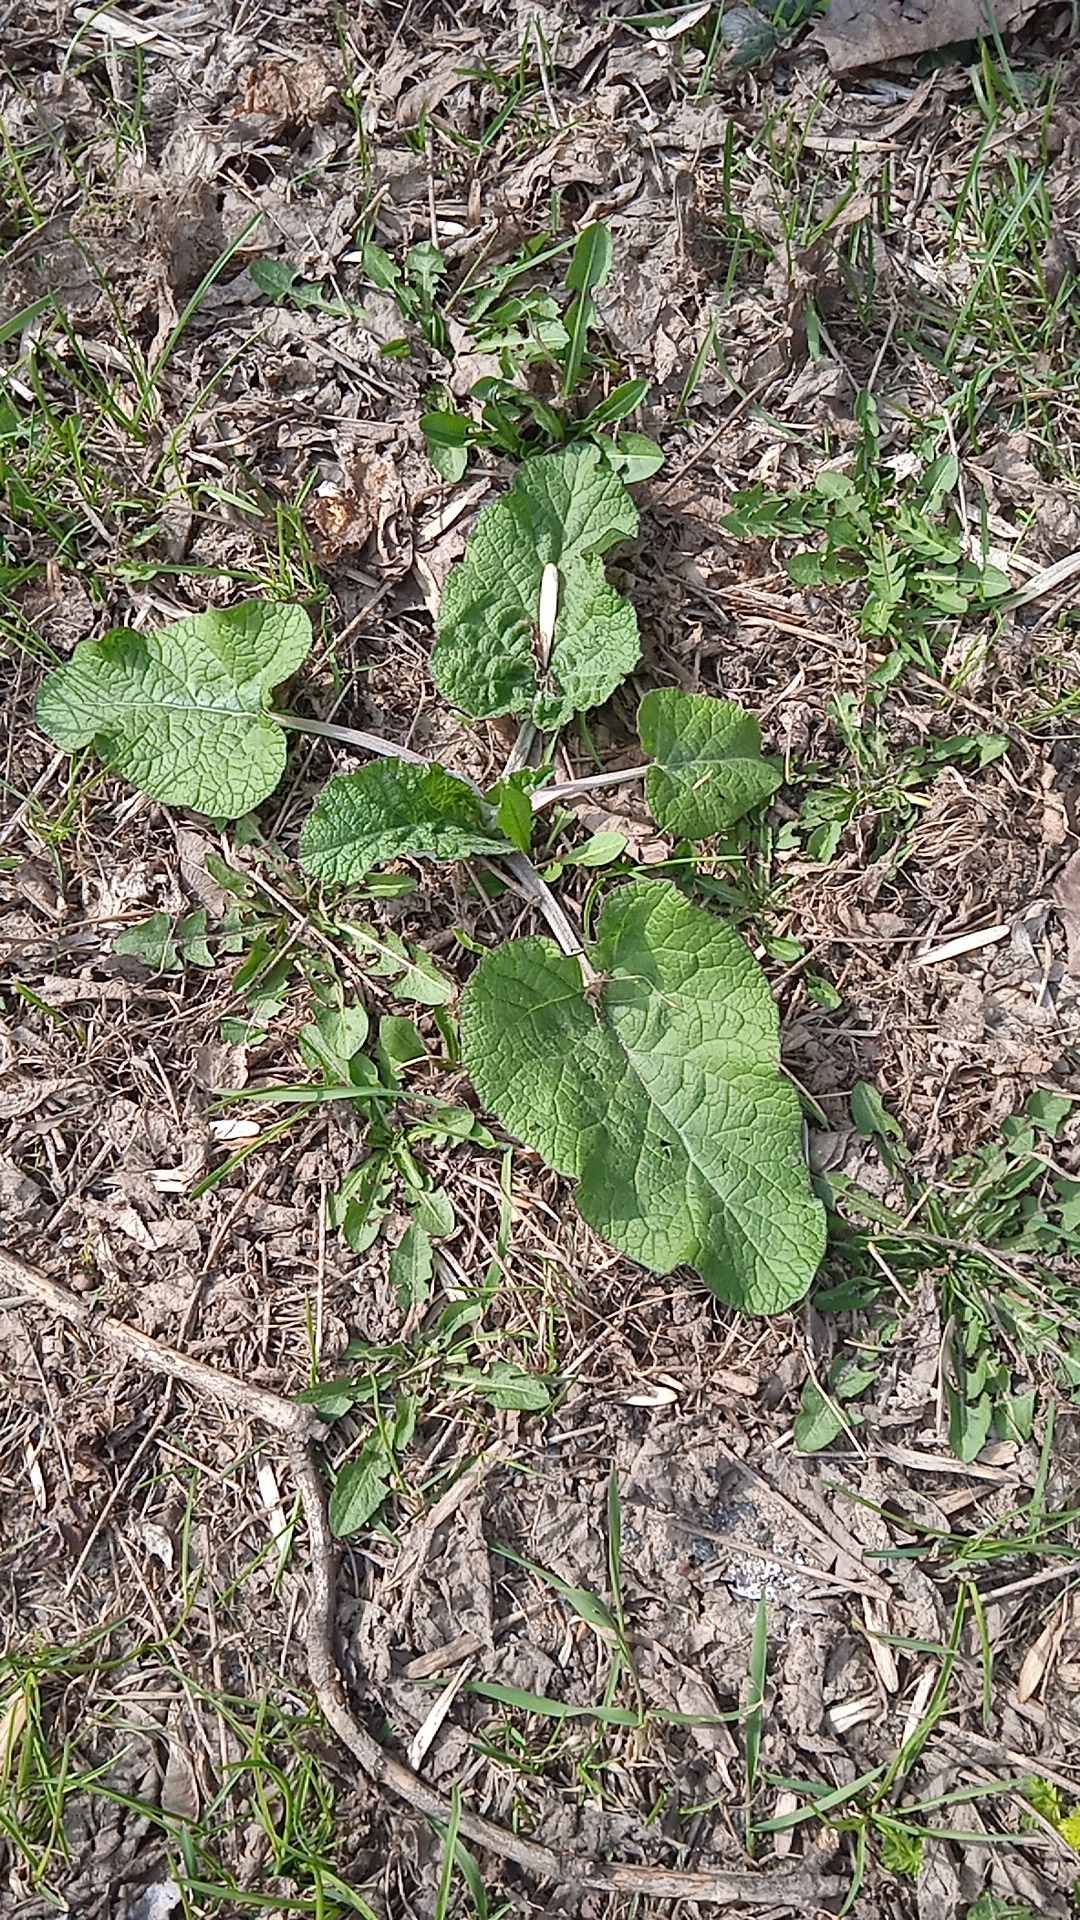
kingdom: Plantae
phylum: Tracheophyta
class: Magnoliopsida
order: Asterales
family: Asteraceae
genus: Arctium
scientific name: Arctium
